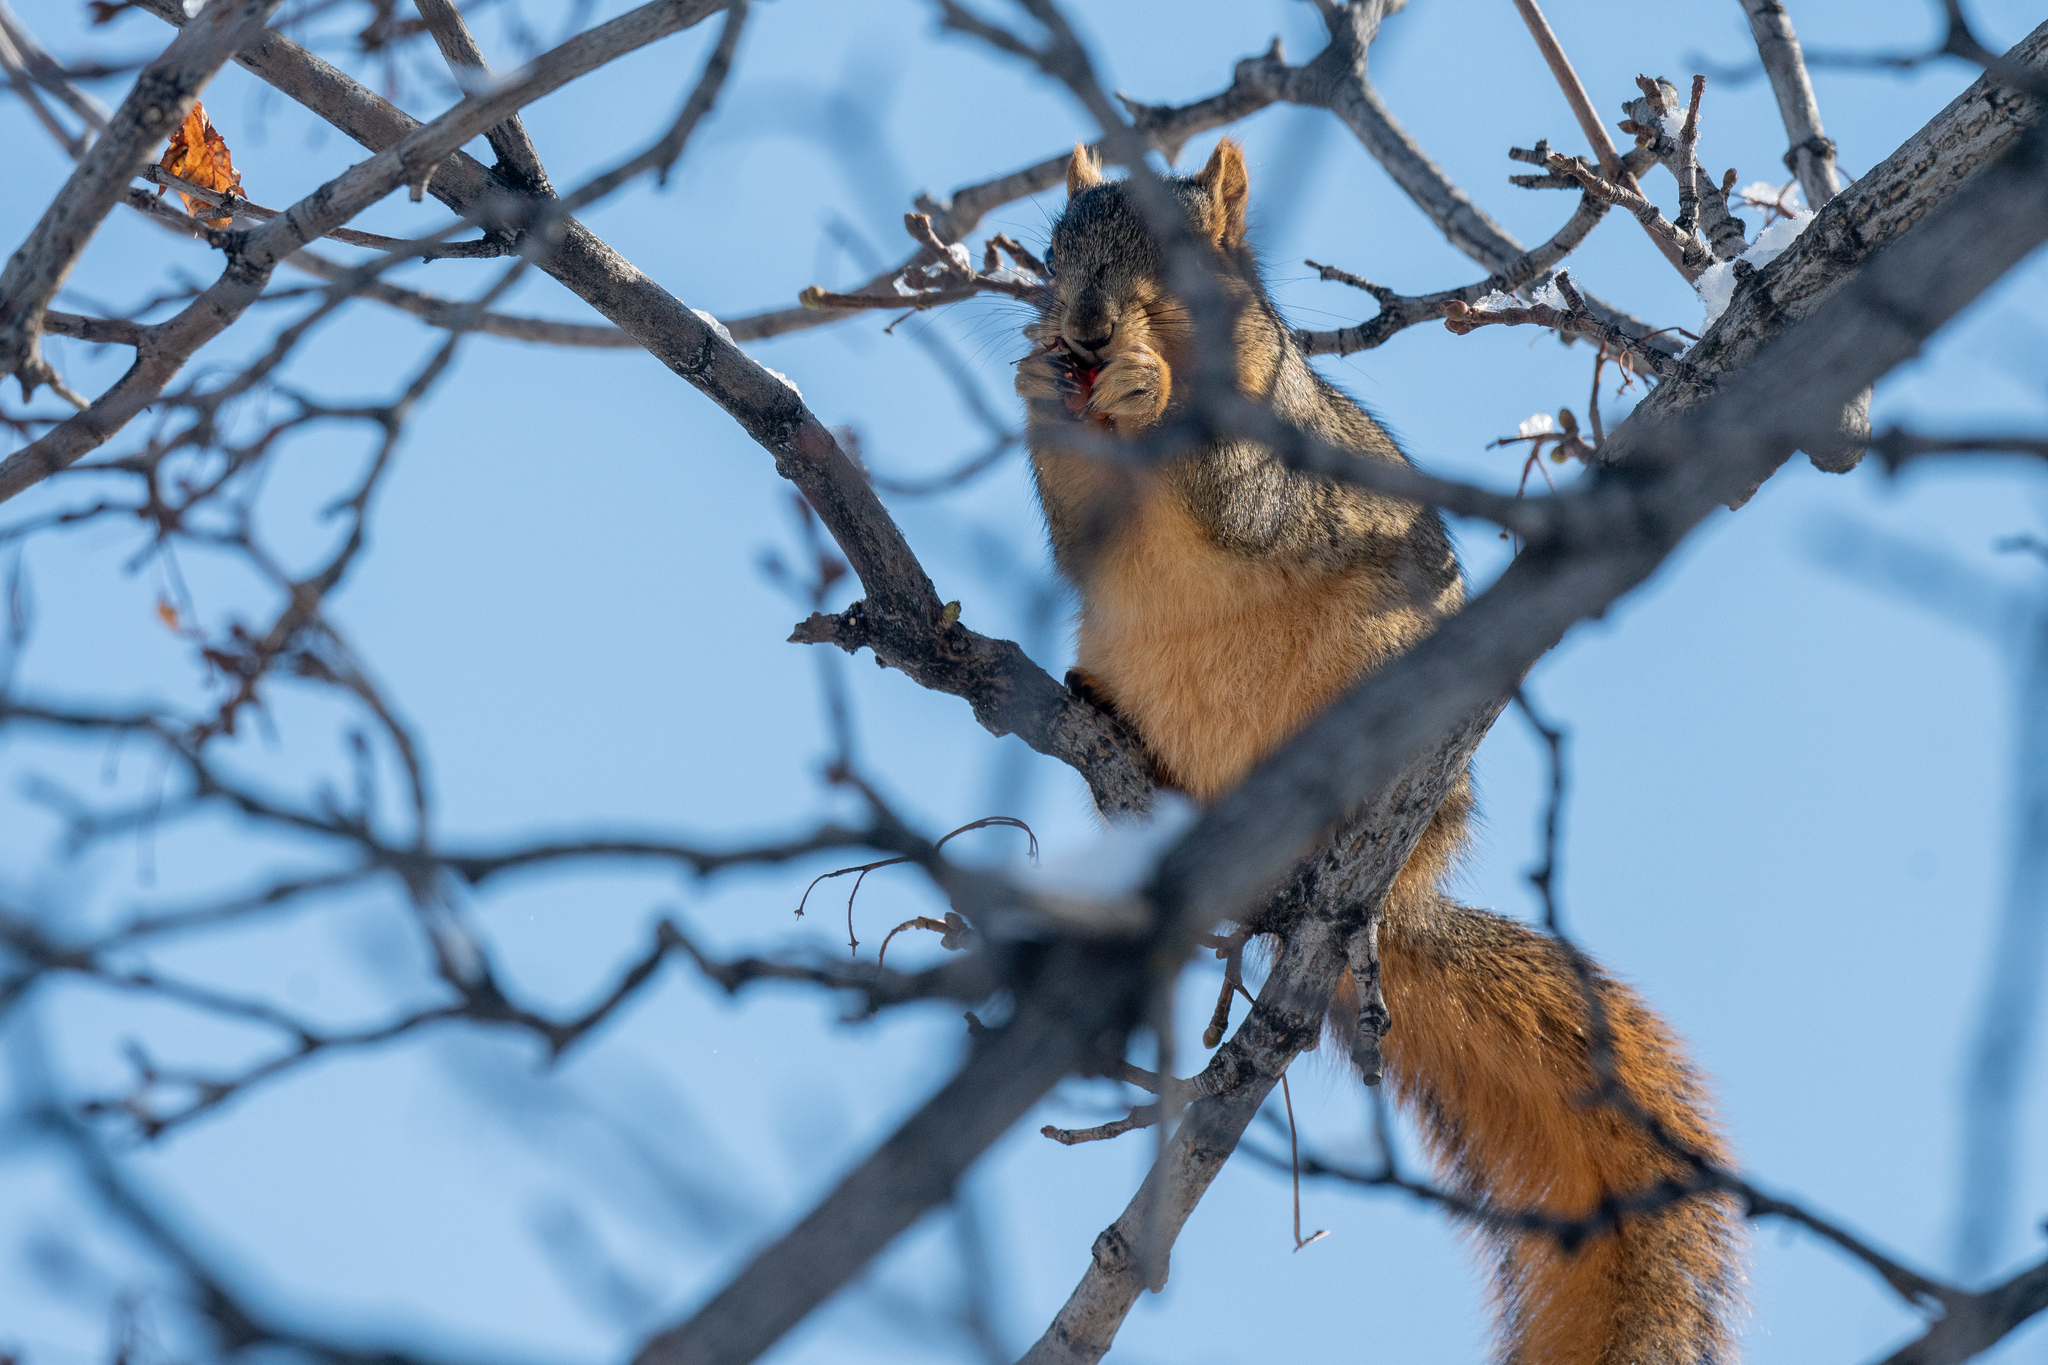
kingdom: Animalia
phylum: Chordata
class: Mammalia
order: Rodentia
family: Sciuridae
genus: Sciurus
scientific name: Sciurus niger
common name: Fox squirrel
